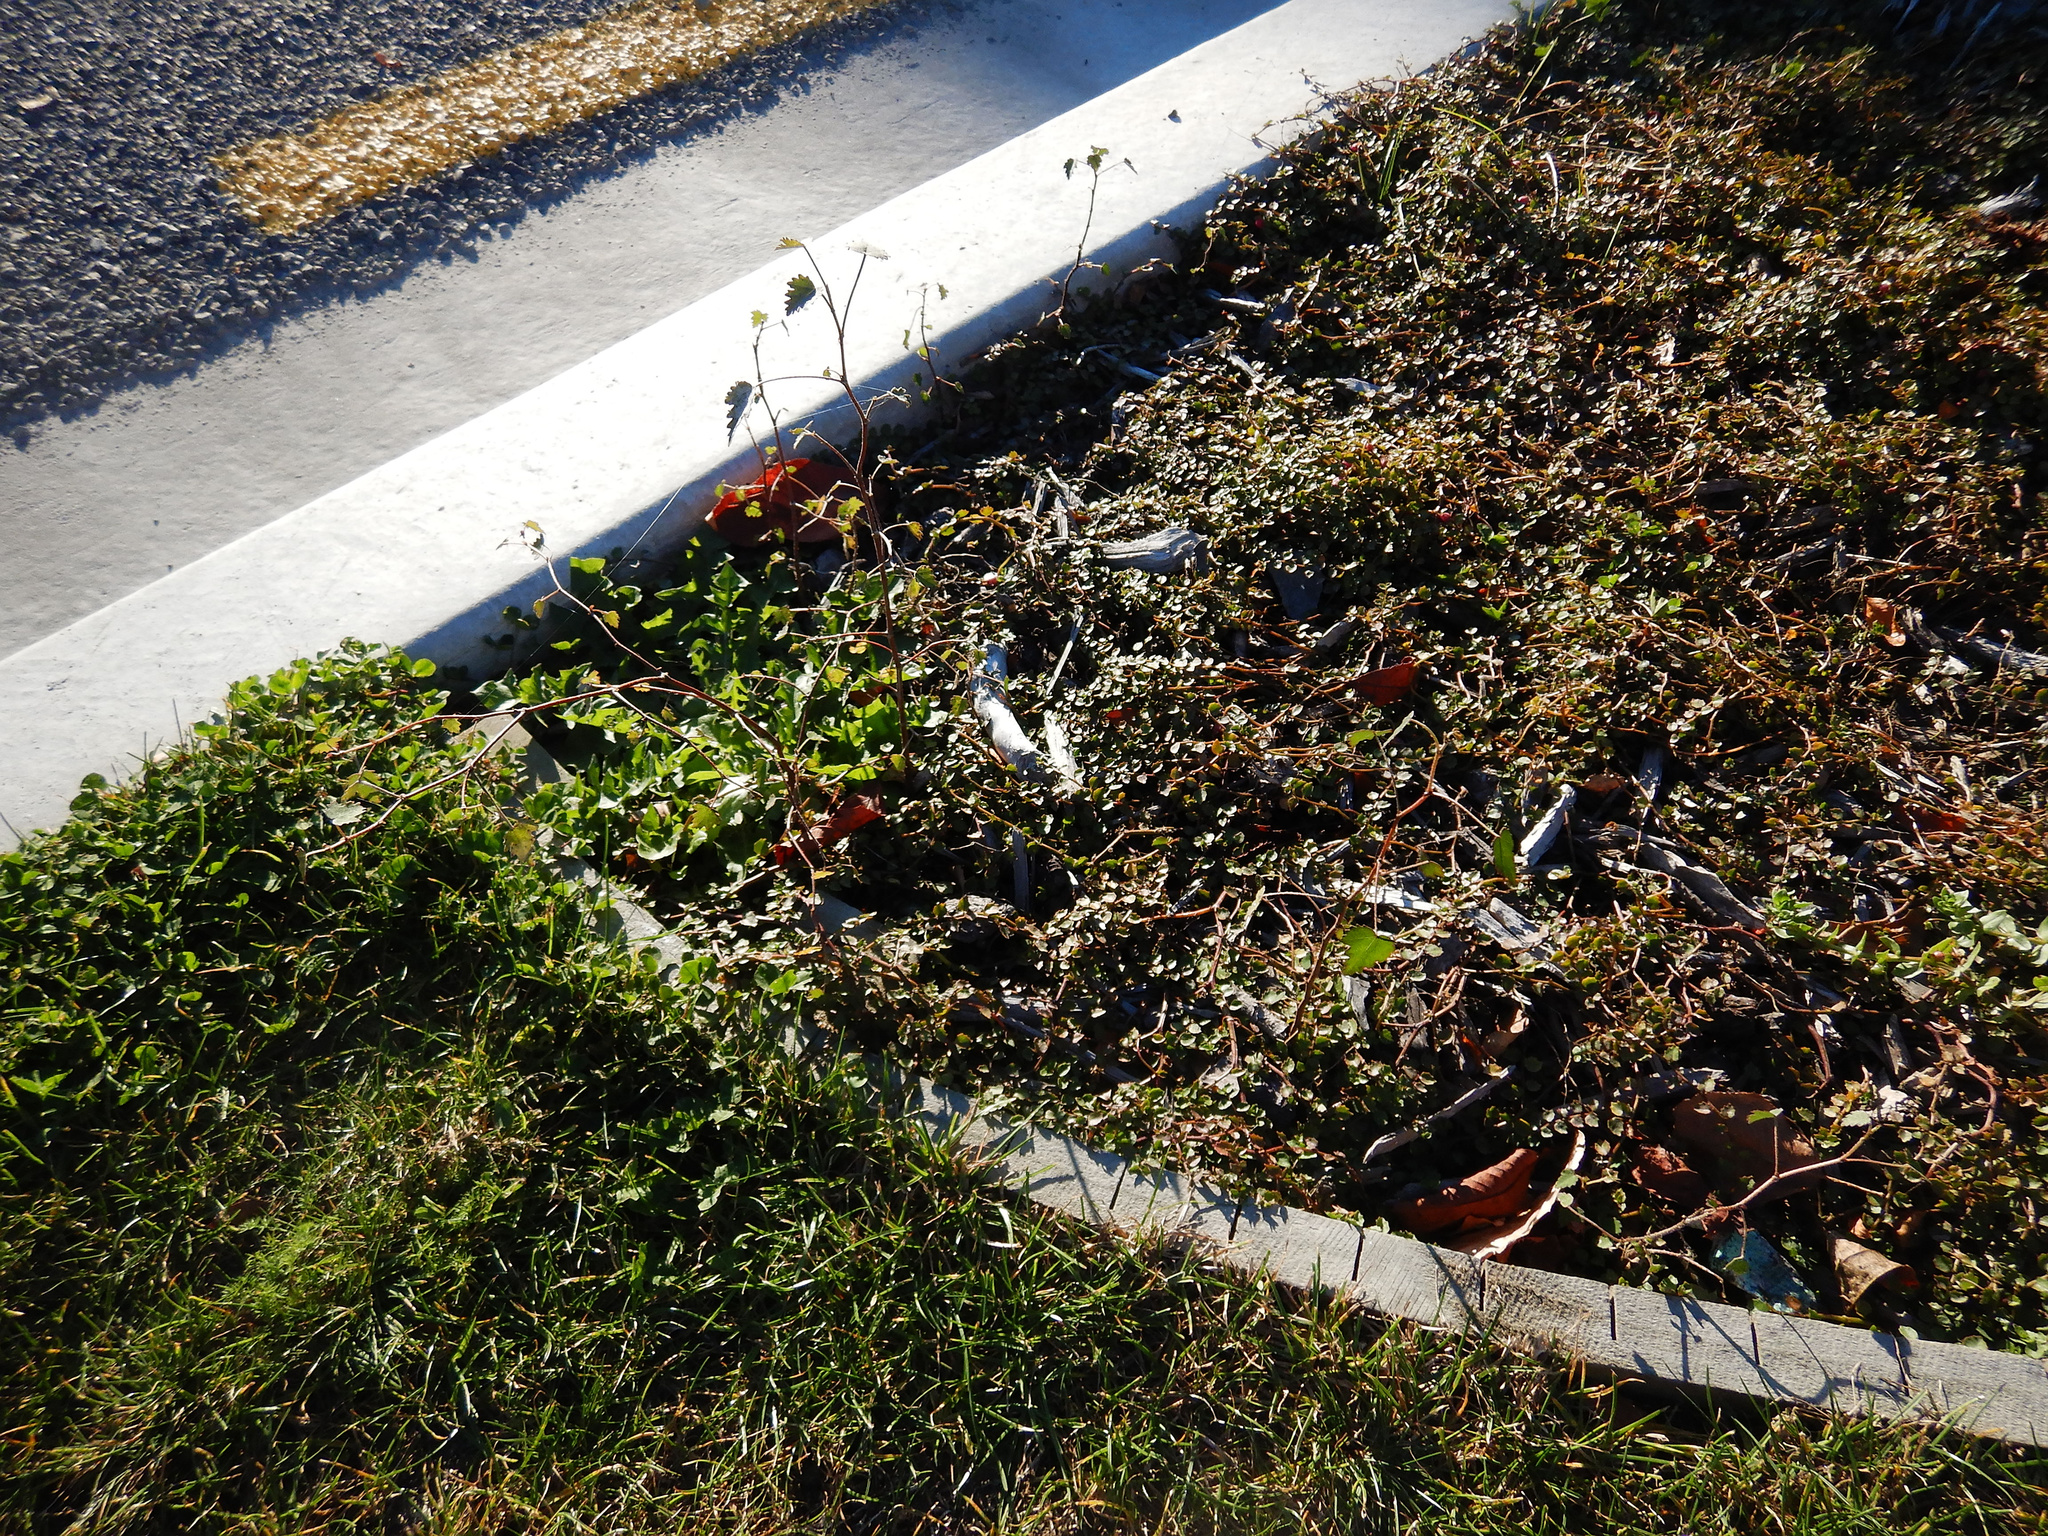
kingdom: Plantae
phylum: Tracheophyta
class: Magnoliopsida
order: Malvales
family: Malvaceae
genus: Plagianthus
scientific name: Plagianthus regius
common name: Manatu
